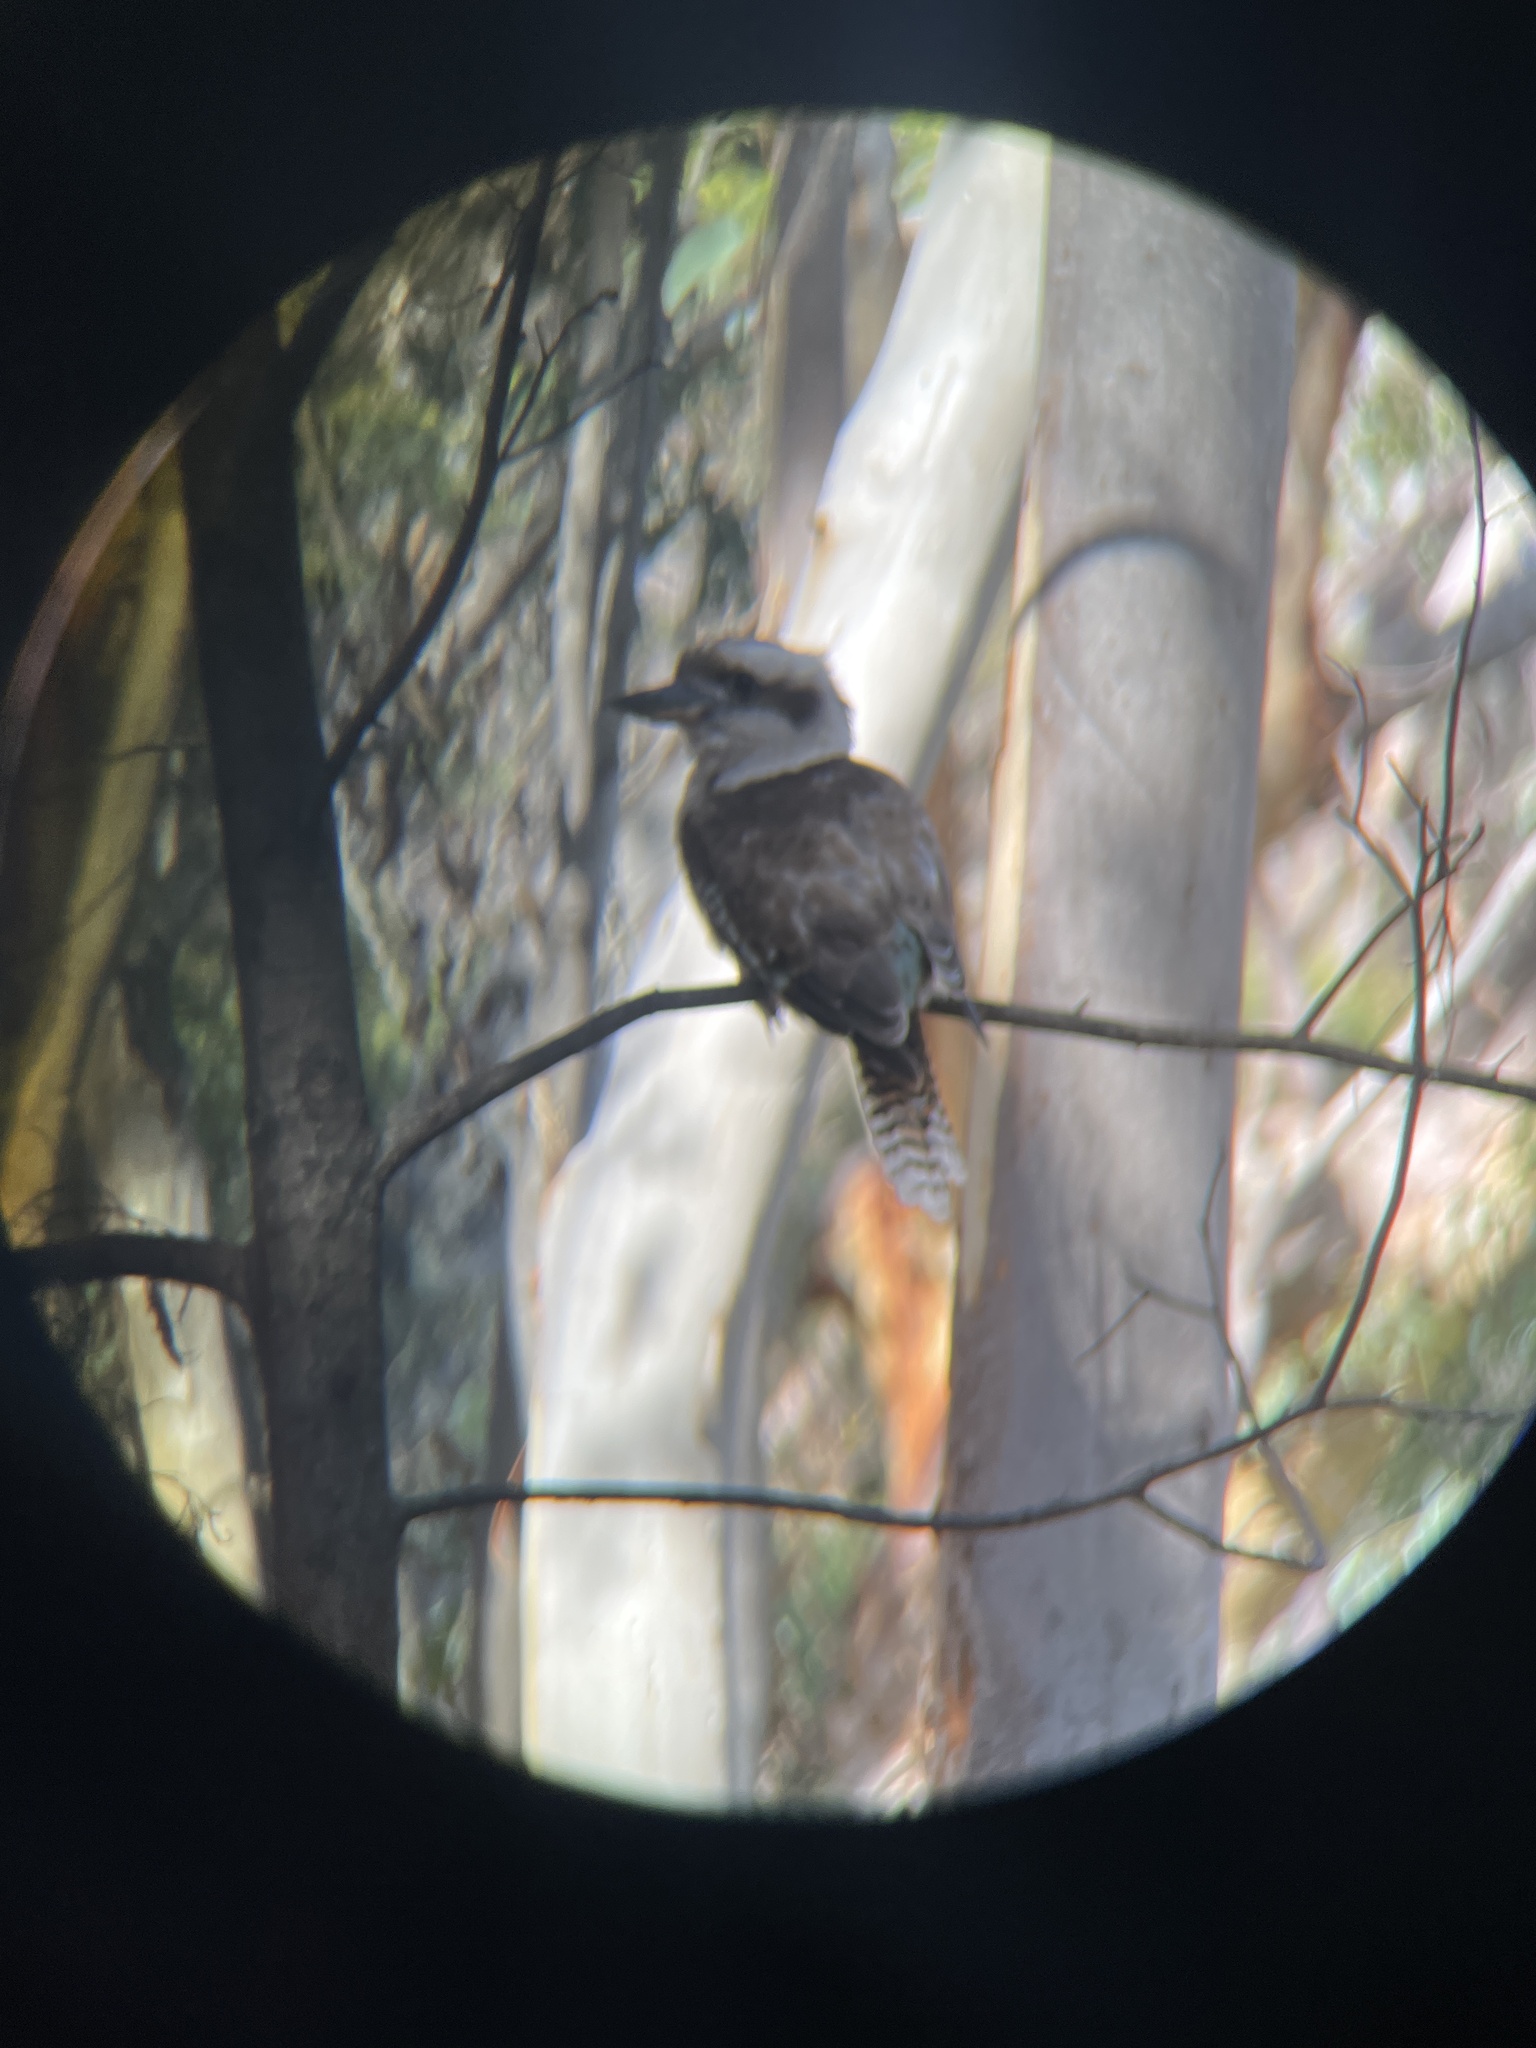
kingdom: Animalia
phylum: Chordata
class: Aves
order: Coraciiformes
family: Alcedinidae
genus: Dacelo
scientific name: Dacelo novaeguineae
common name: Laughing kookaburra
